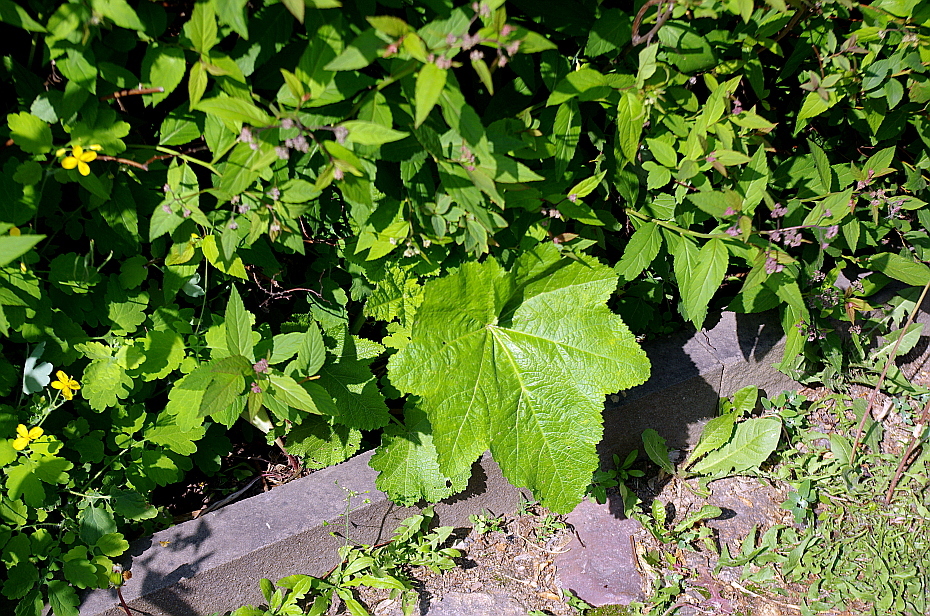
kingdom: Plantae
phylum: Tracheophyta
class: Magnoliopsida
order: Malvales
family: Malvaceae
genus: Alcea
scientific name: Alcea rosea
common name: Hollyhock
